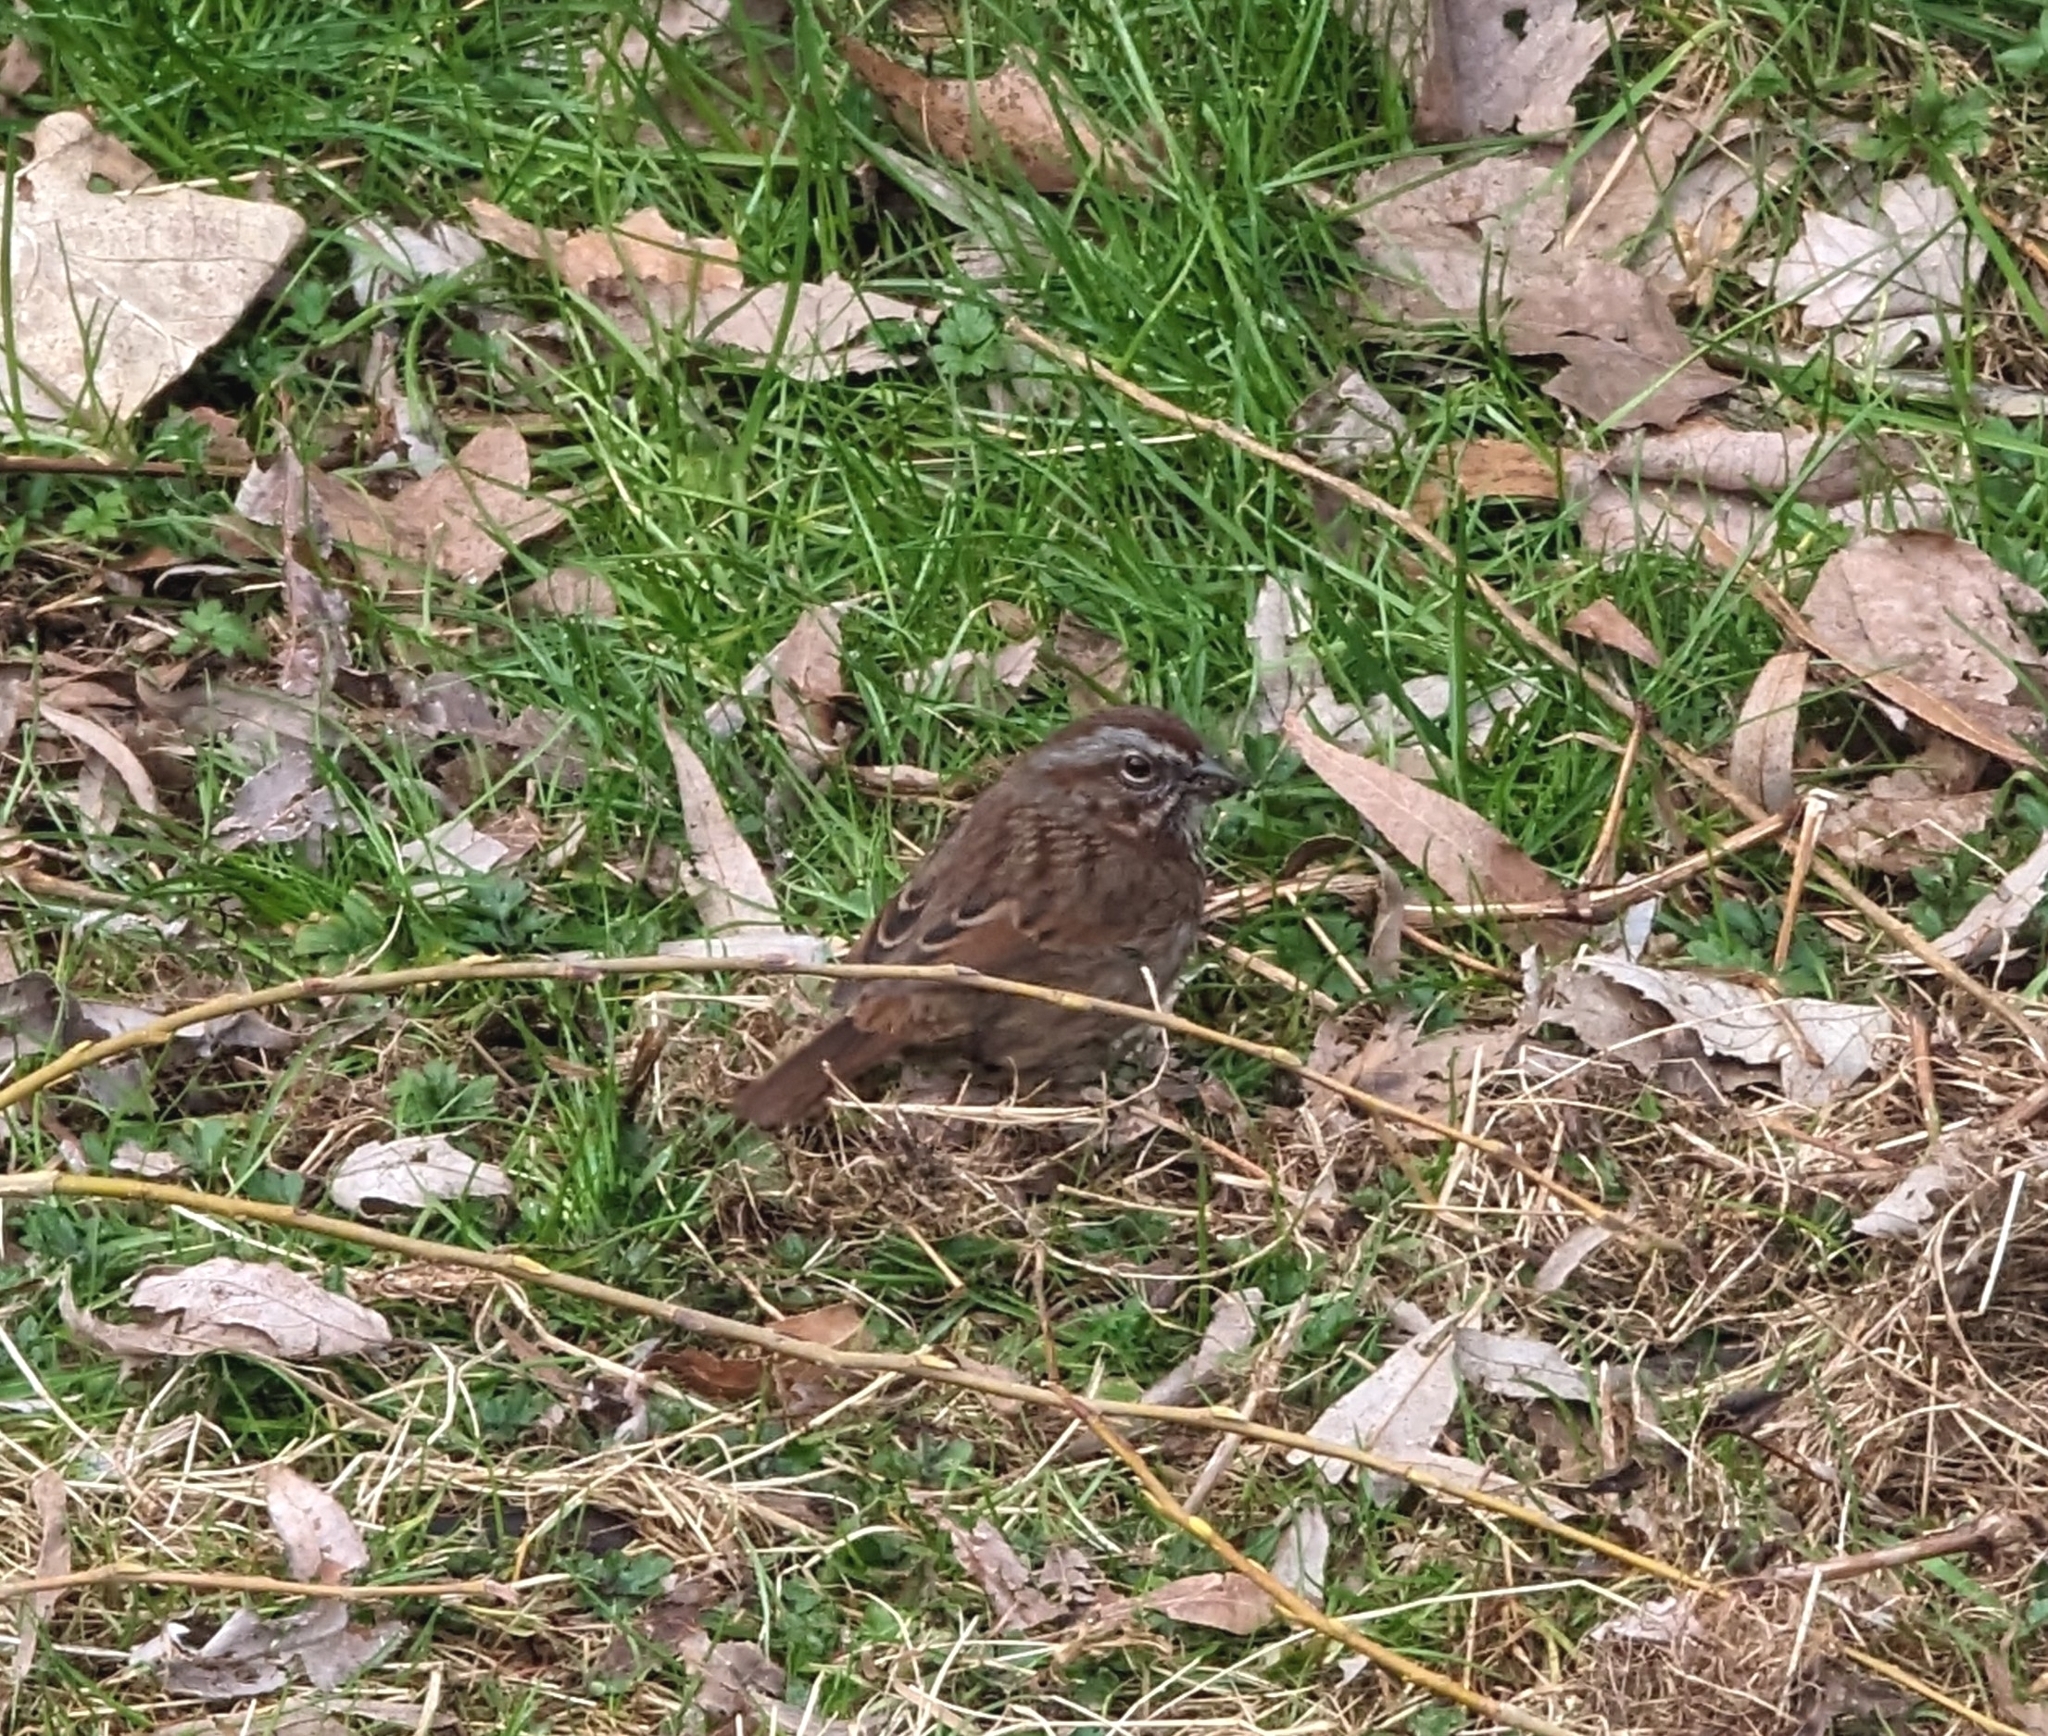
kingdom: Animalia
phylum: Chordata
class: Aves
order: Passeriformes
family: Passerellidae
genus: Melospiza
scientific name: Melospiza melodia
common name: Song sparrow
